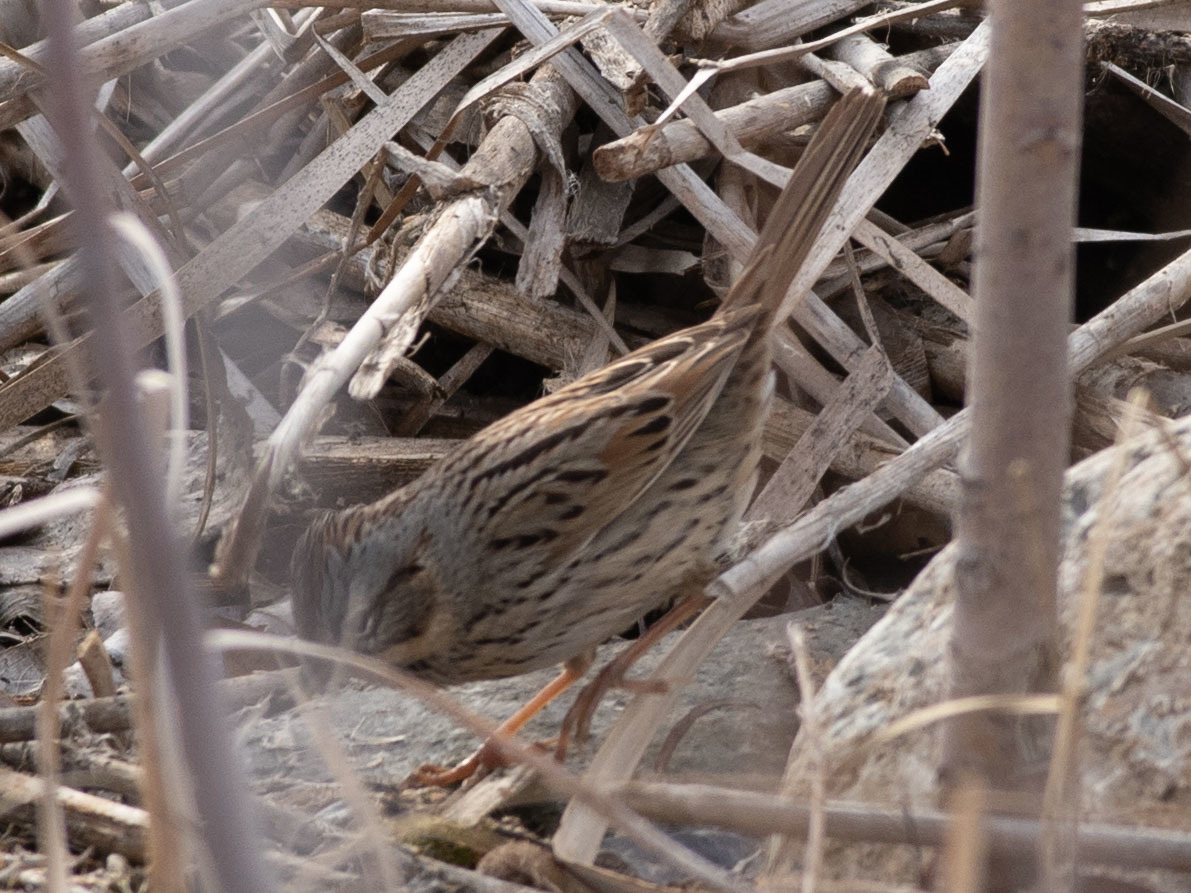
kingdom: Animalia
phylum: Chordata
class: Aves
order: Passeriformes
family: Passerellidae
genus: Melospiza
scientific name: Melospiza lincolnii
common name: Lincoln's sparrow
